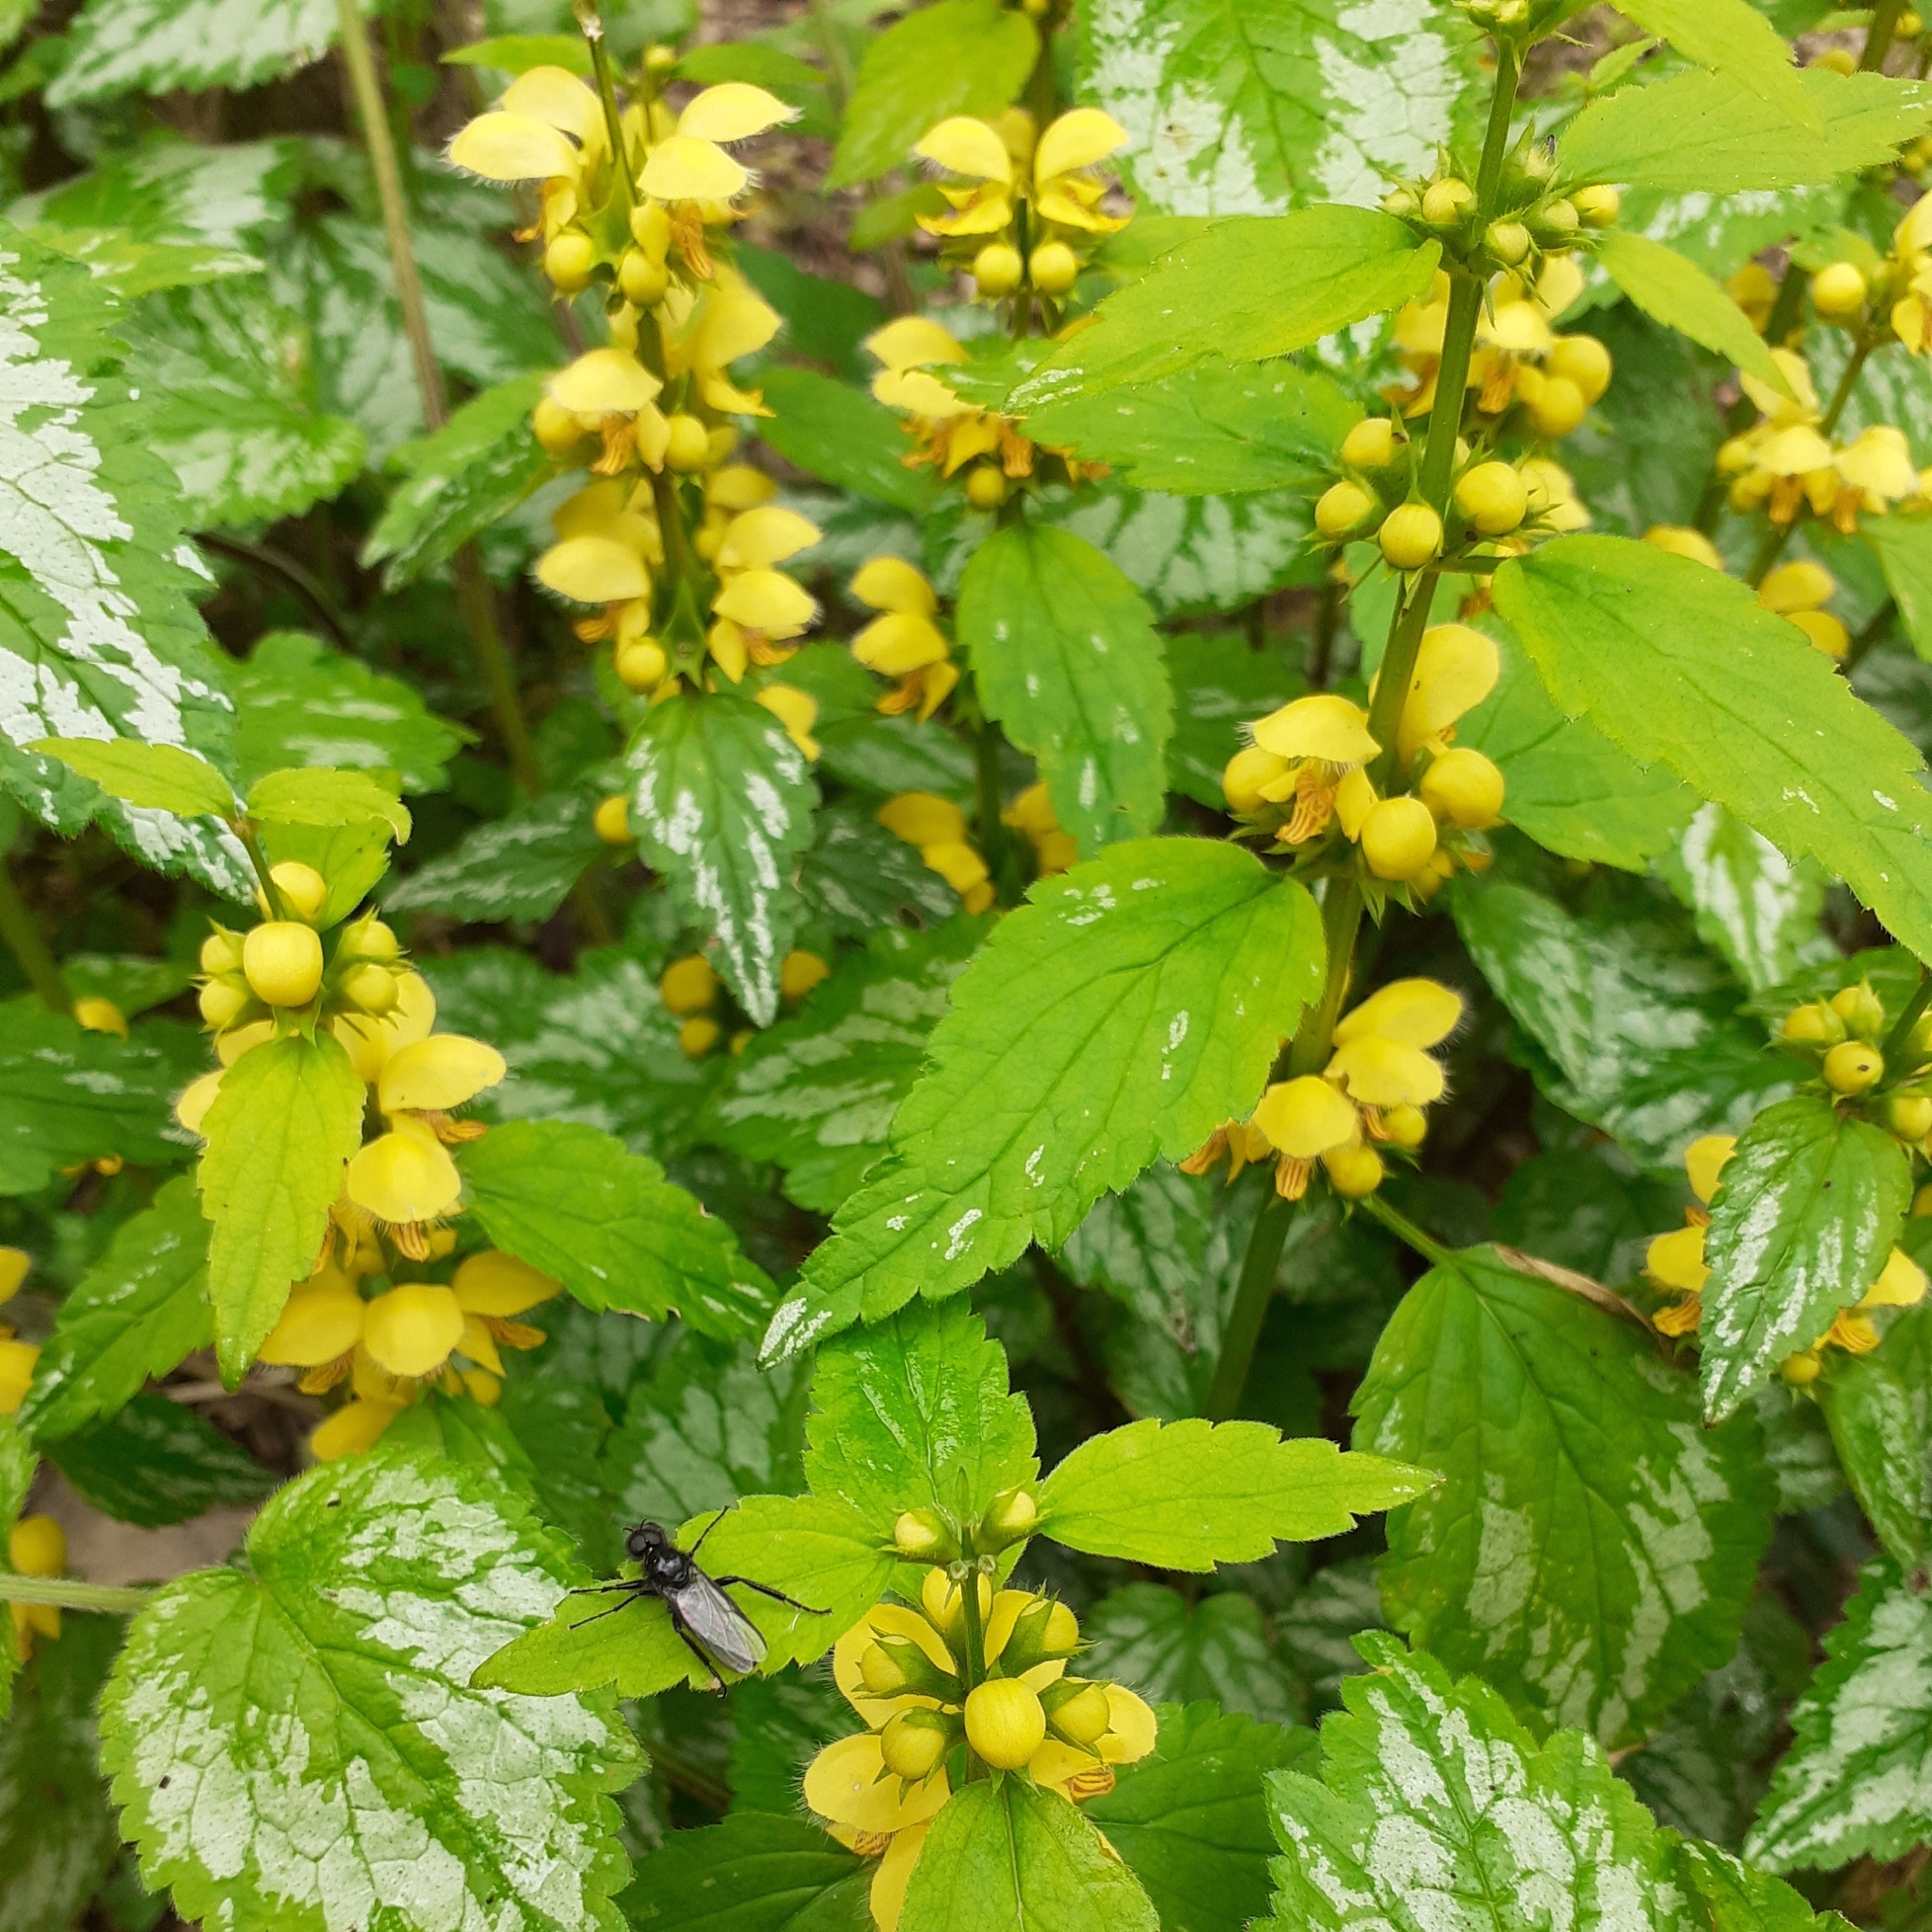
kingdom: Plantae
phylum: Tracheophyta
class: Magnoliopsida
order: Lamiales
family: Lamiaceae
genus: Lamium
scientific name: Lamium galeobdolon
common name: Yellow archangel
